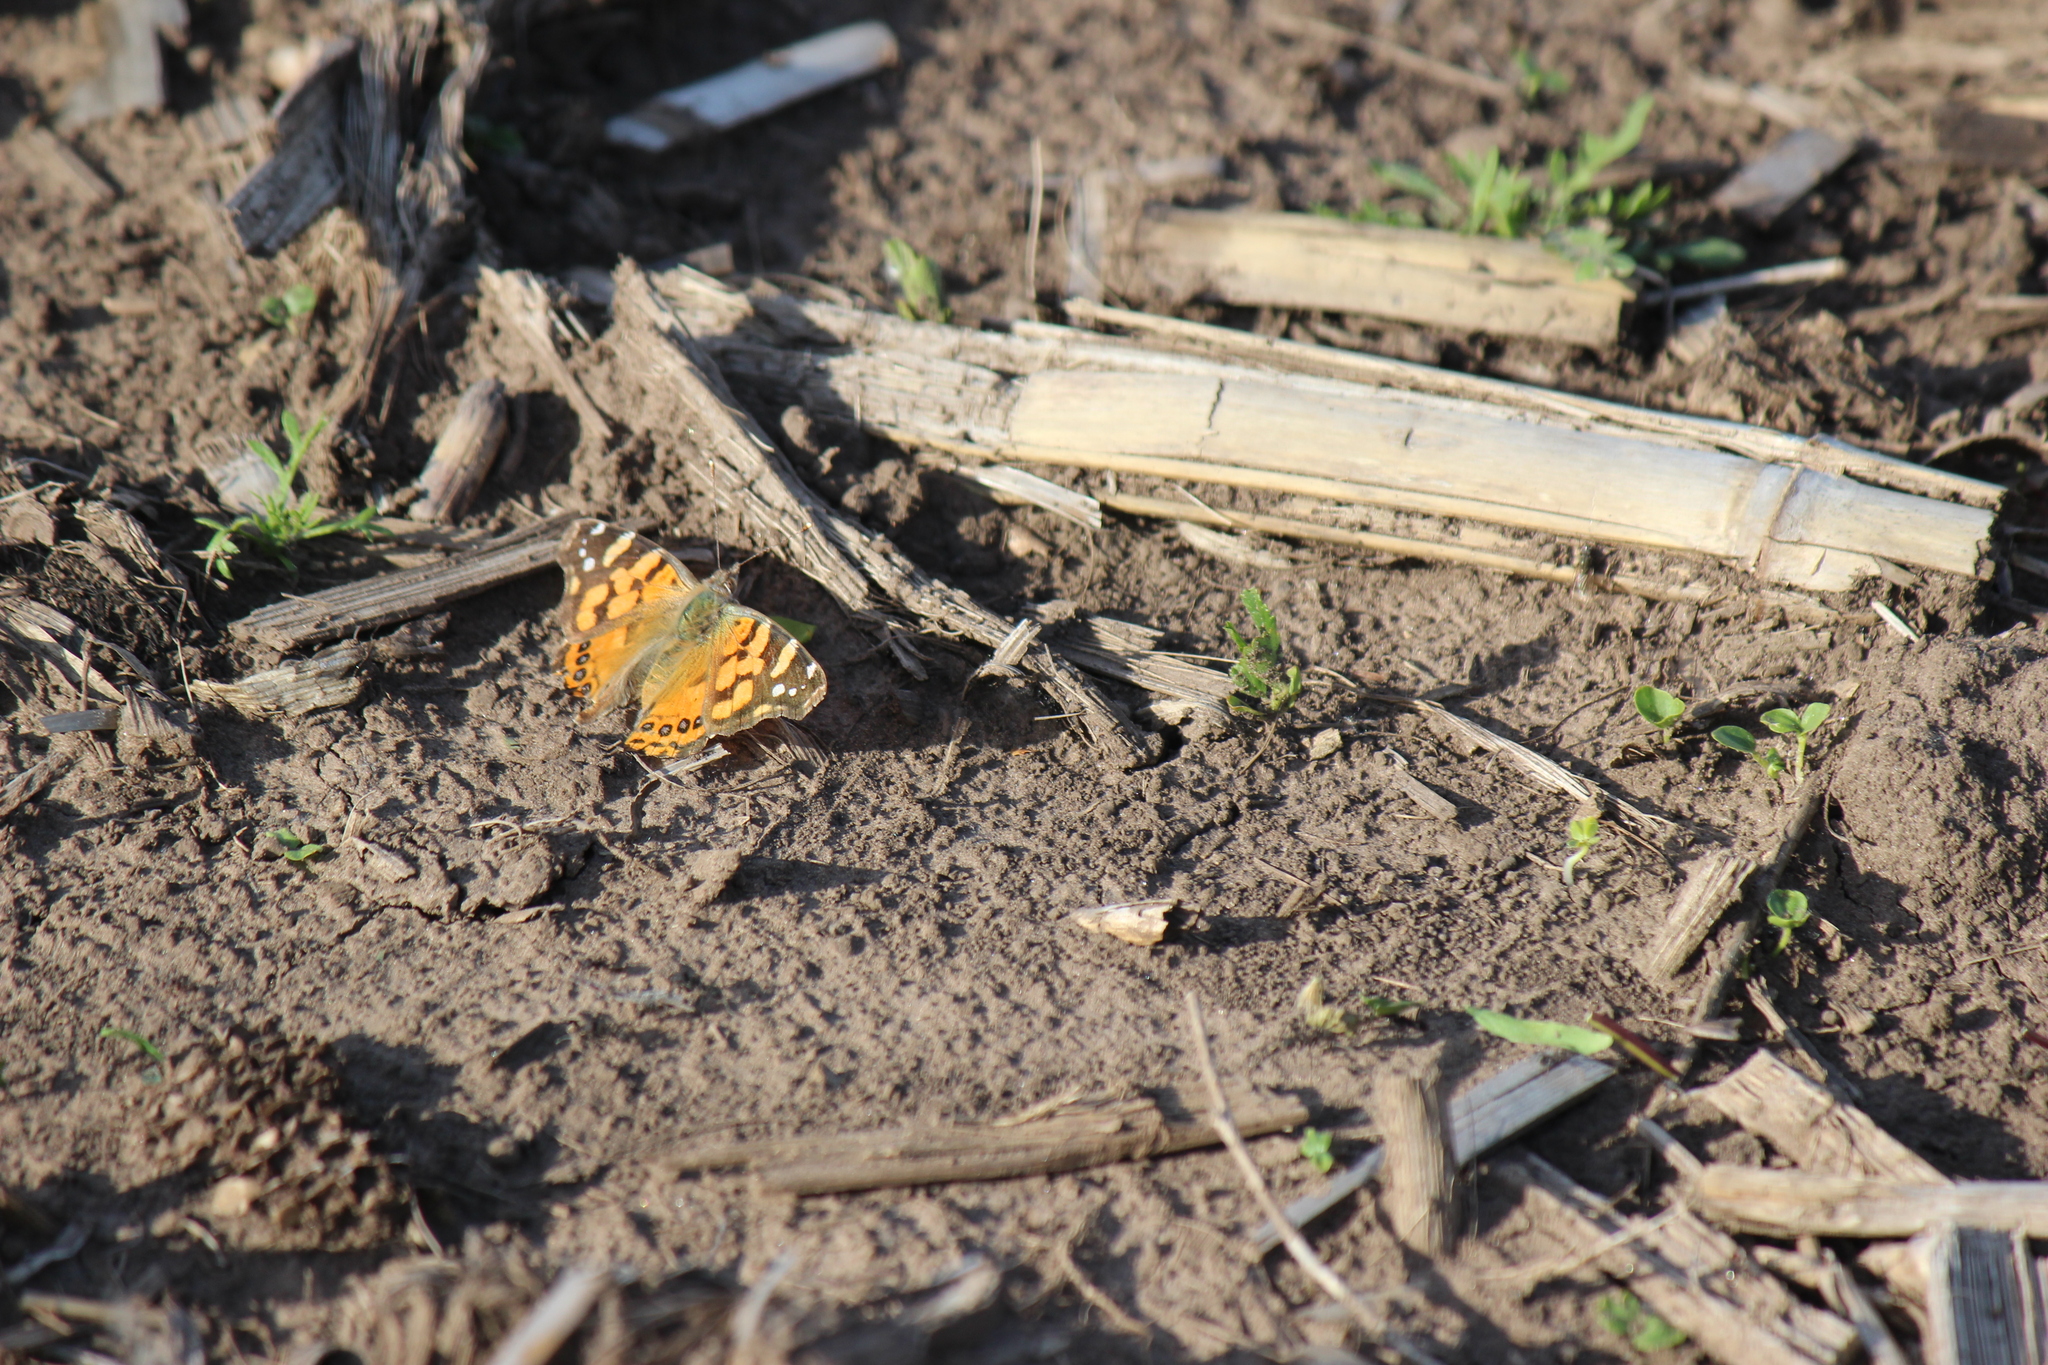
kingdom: Animalia
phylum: Arthropoda
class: Insecta
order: Lepidoptera
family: Nymphalidae
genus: Vanessa
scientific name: Vanessa carye
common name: Subtropical lady
